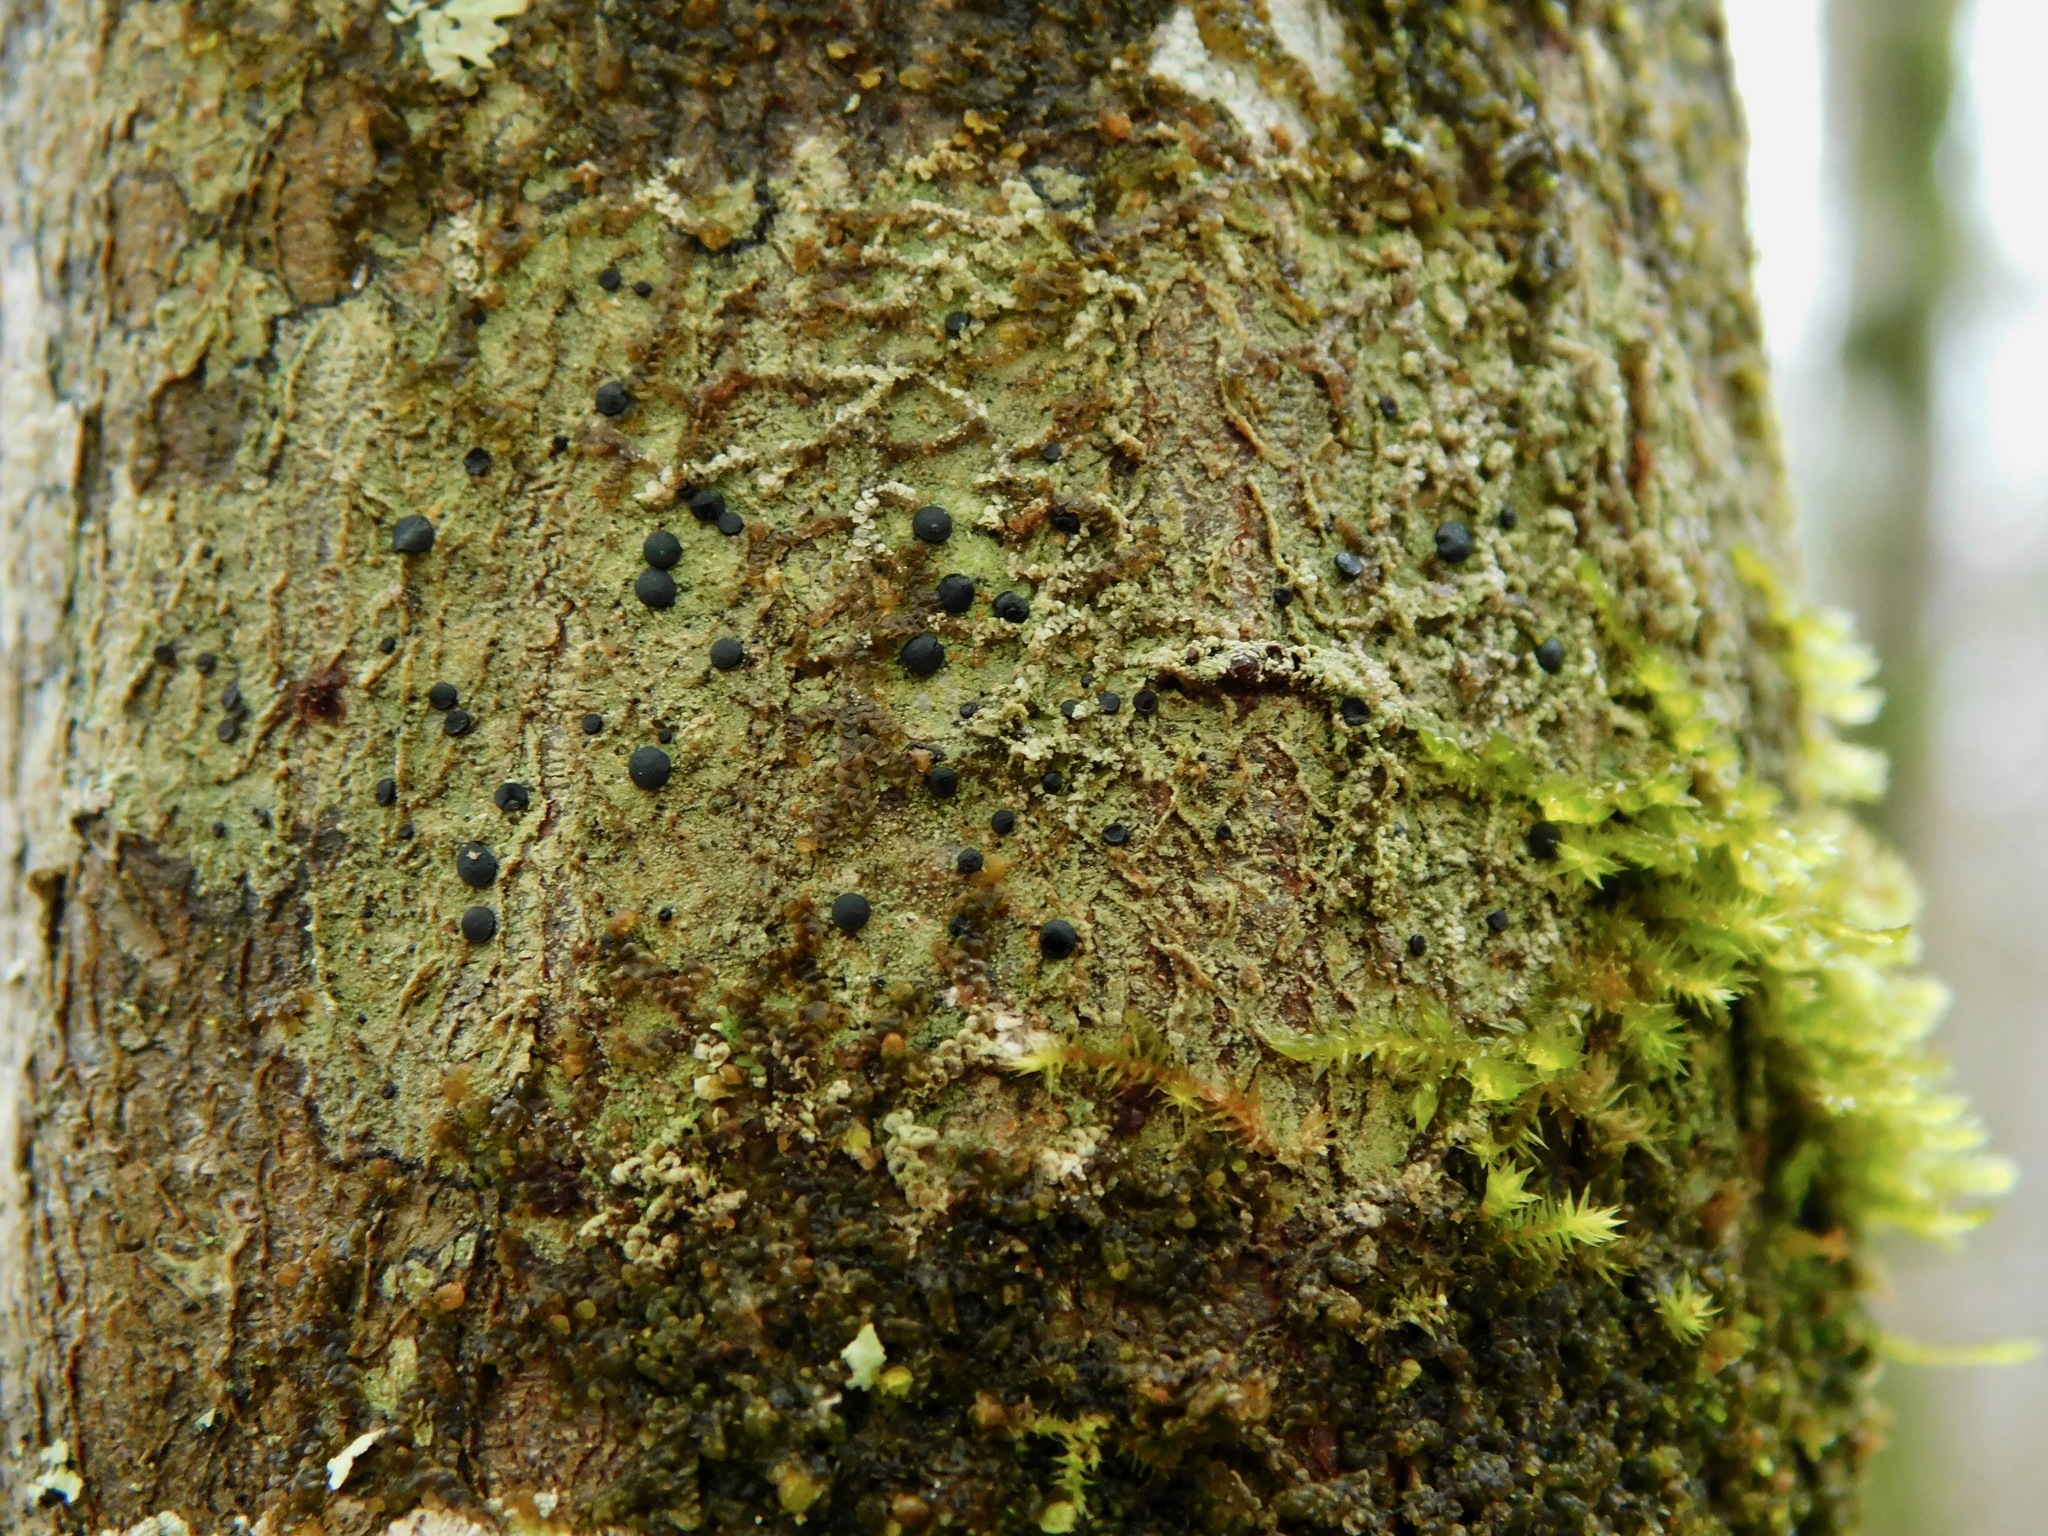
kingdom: Fungi
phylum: Ascomycota
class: Lecanoromycetes
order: Lecanorales
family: Ramalinaceae
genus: Bacidia
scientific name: Bacidia schweinitzii
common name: Surprise lichen
